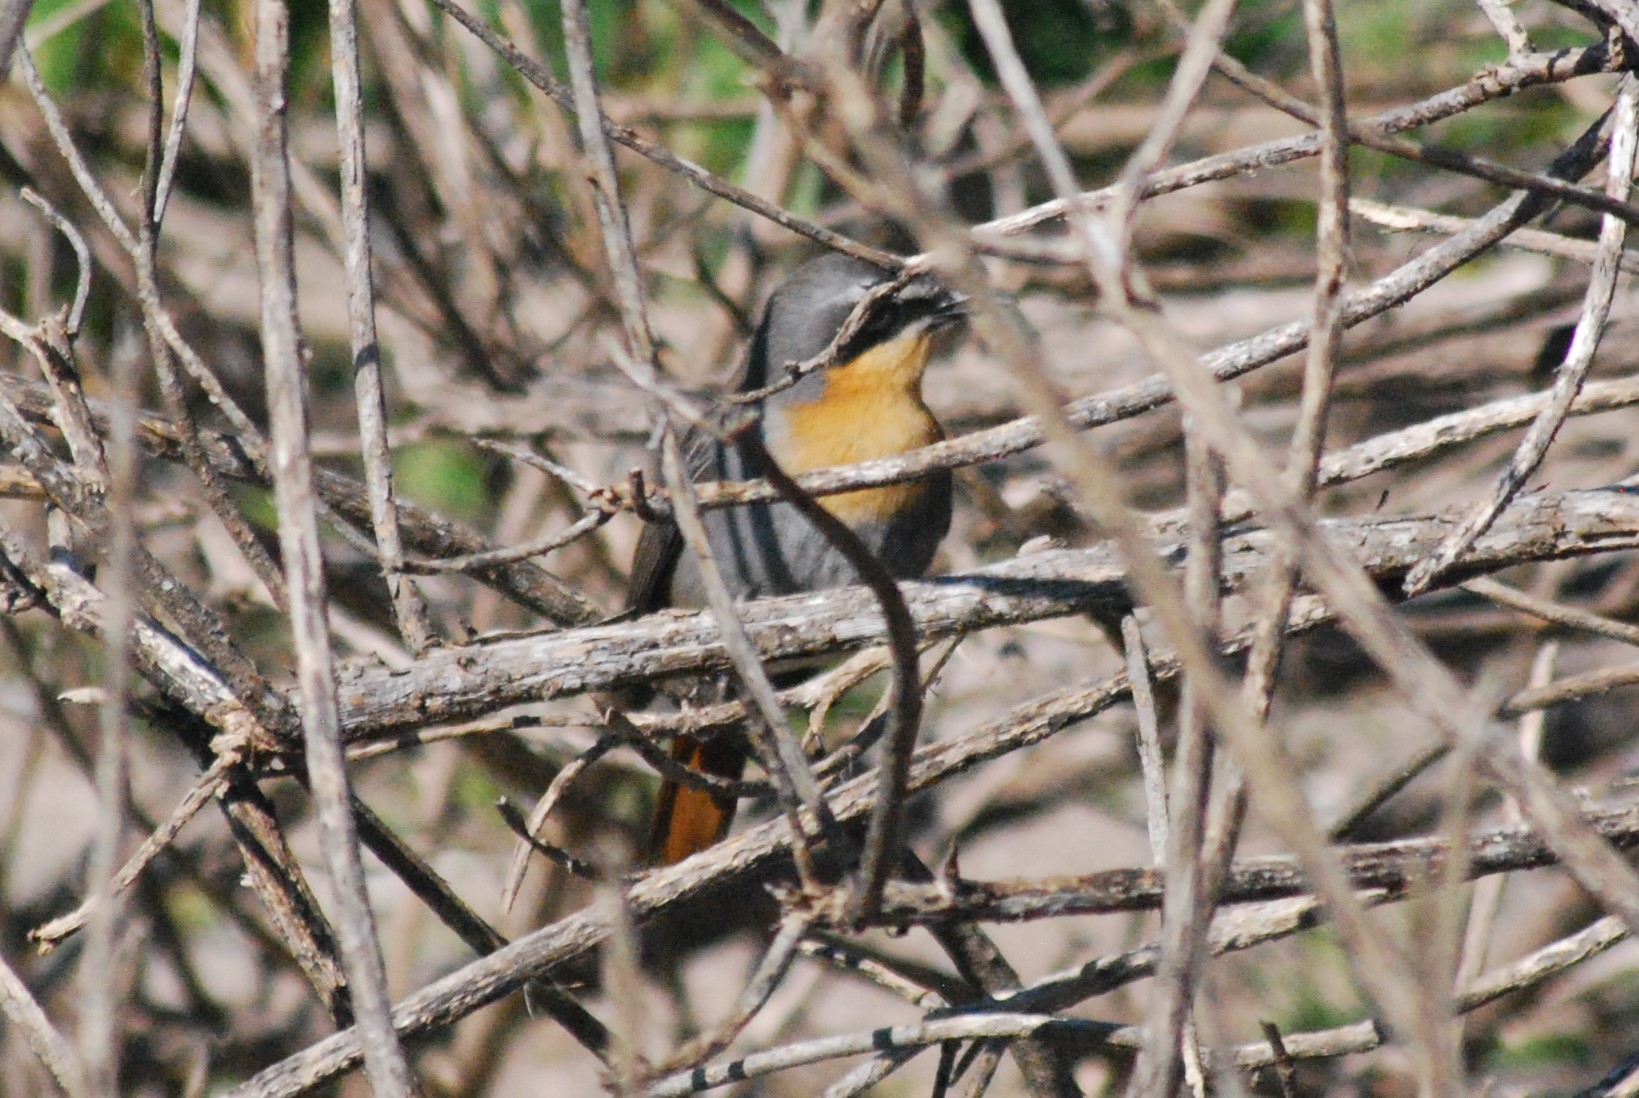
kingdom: Animalia
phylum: Chordata
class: Aves
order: Passeriformes
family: Muscicapidae
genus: Cossypha
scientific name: Cossypha caffra
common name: Cape robin-chat
